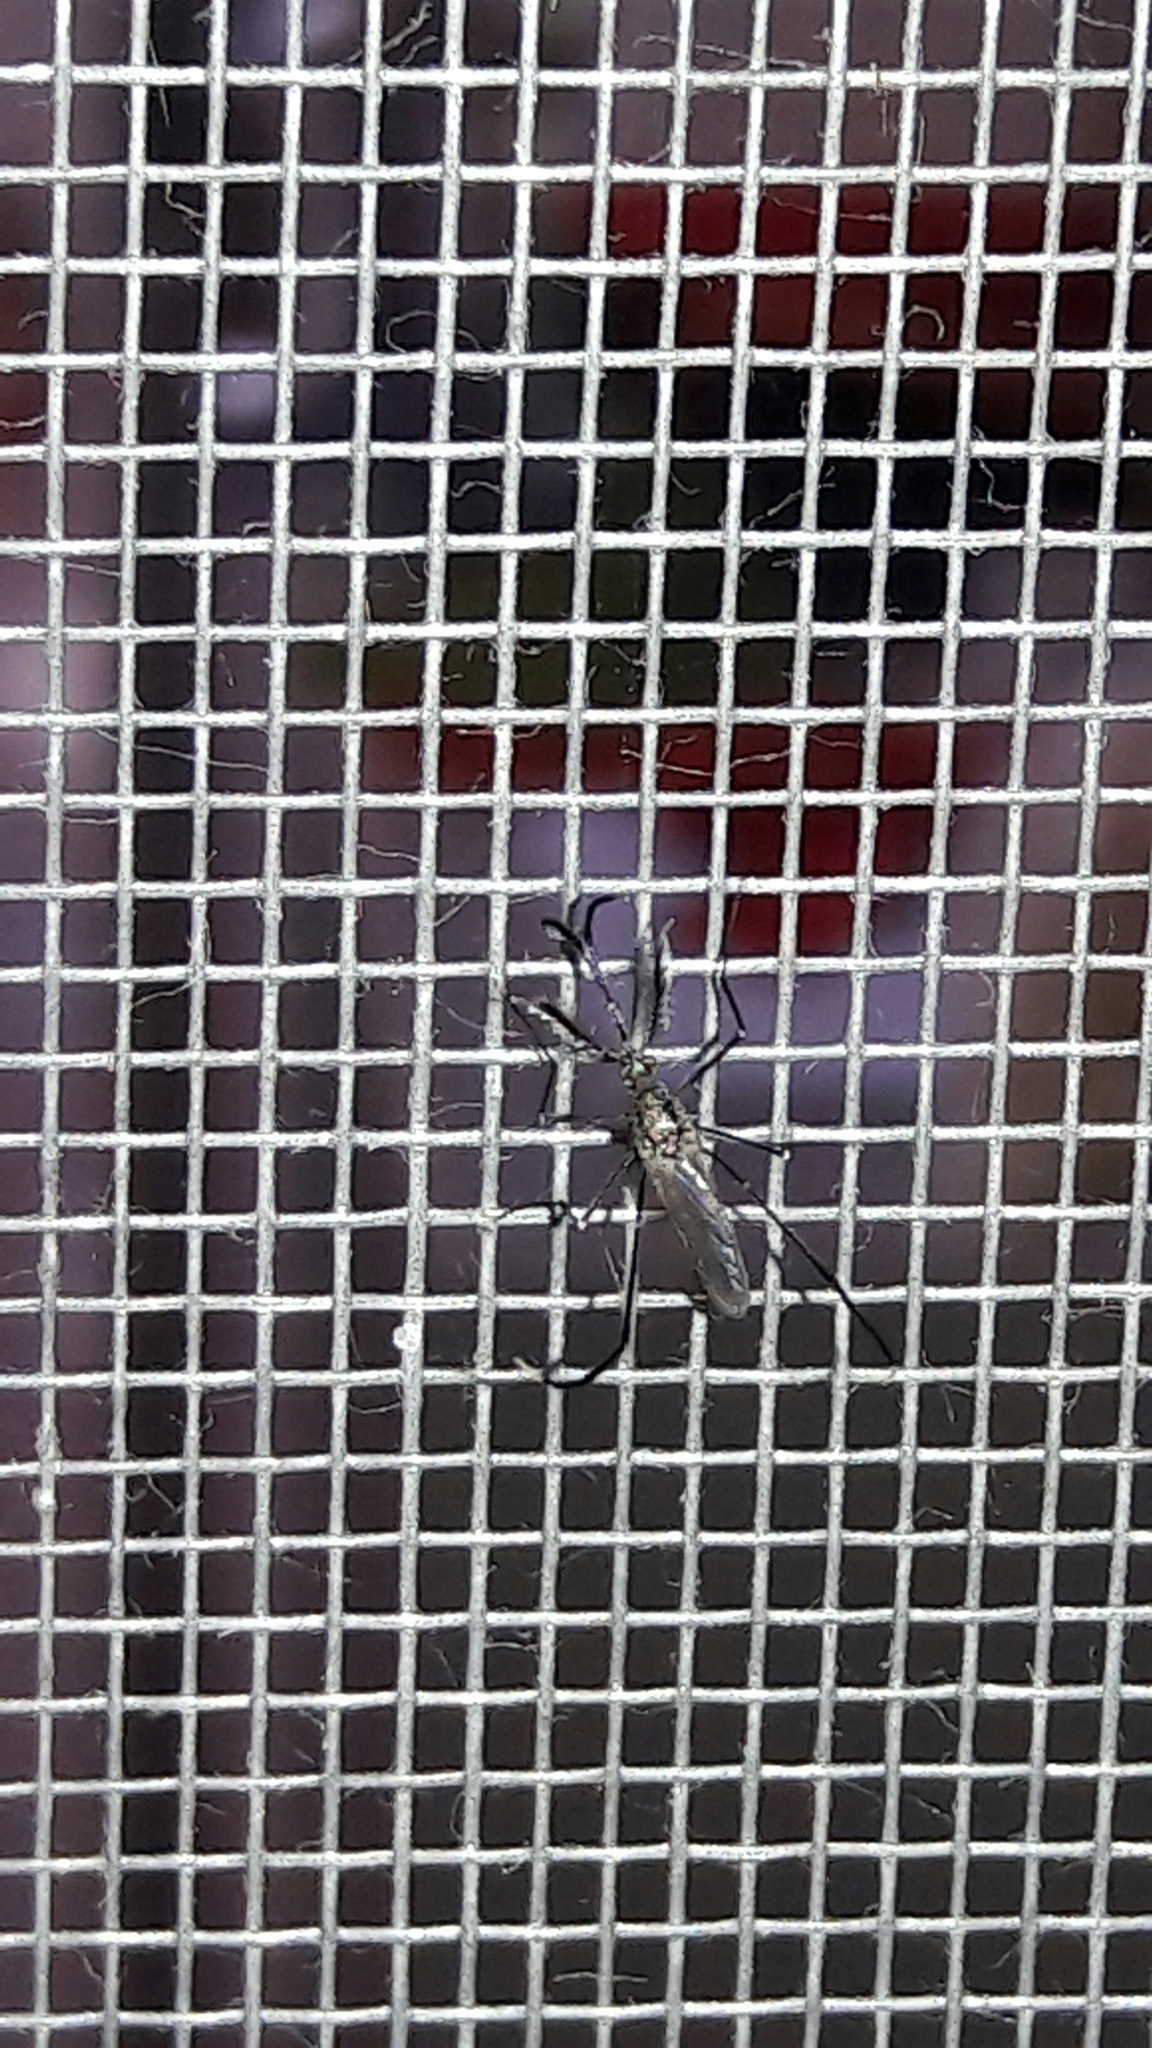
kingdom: Animalia
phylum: Arthropoda
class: Insecta
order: Diptera
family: Culicidae
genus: Psorophora
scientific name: Psorophora ferox
